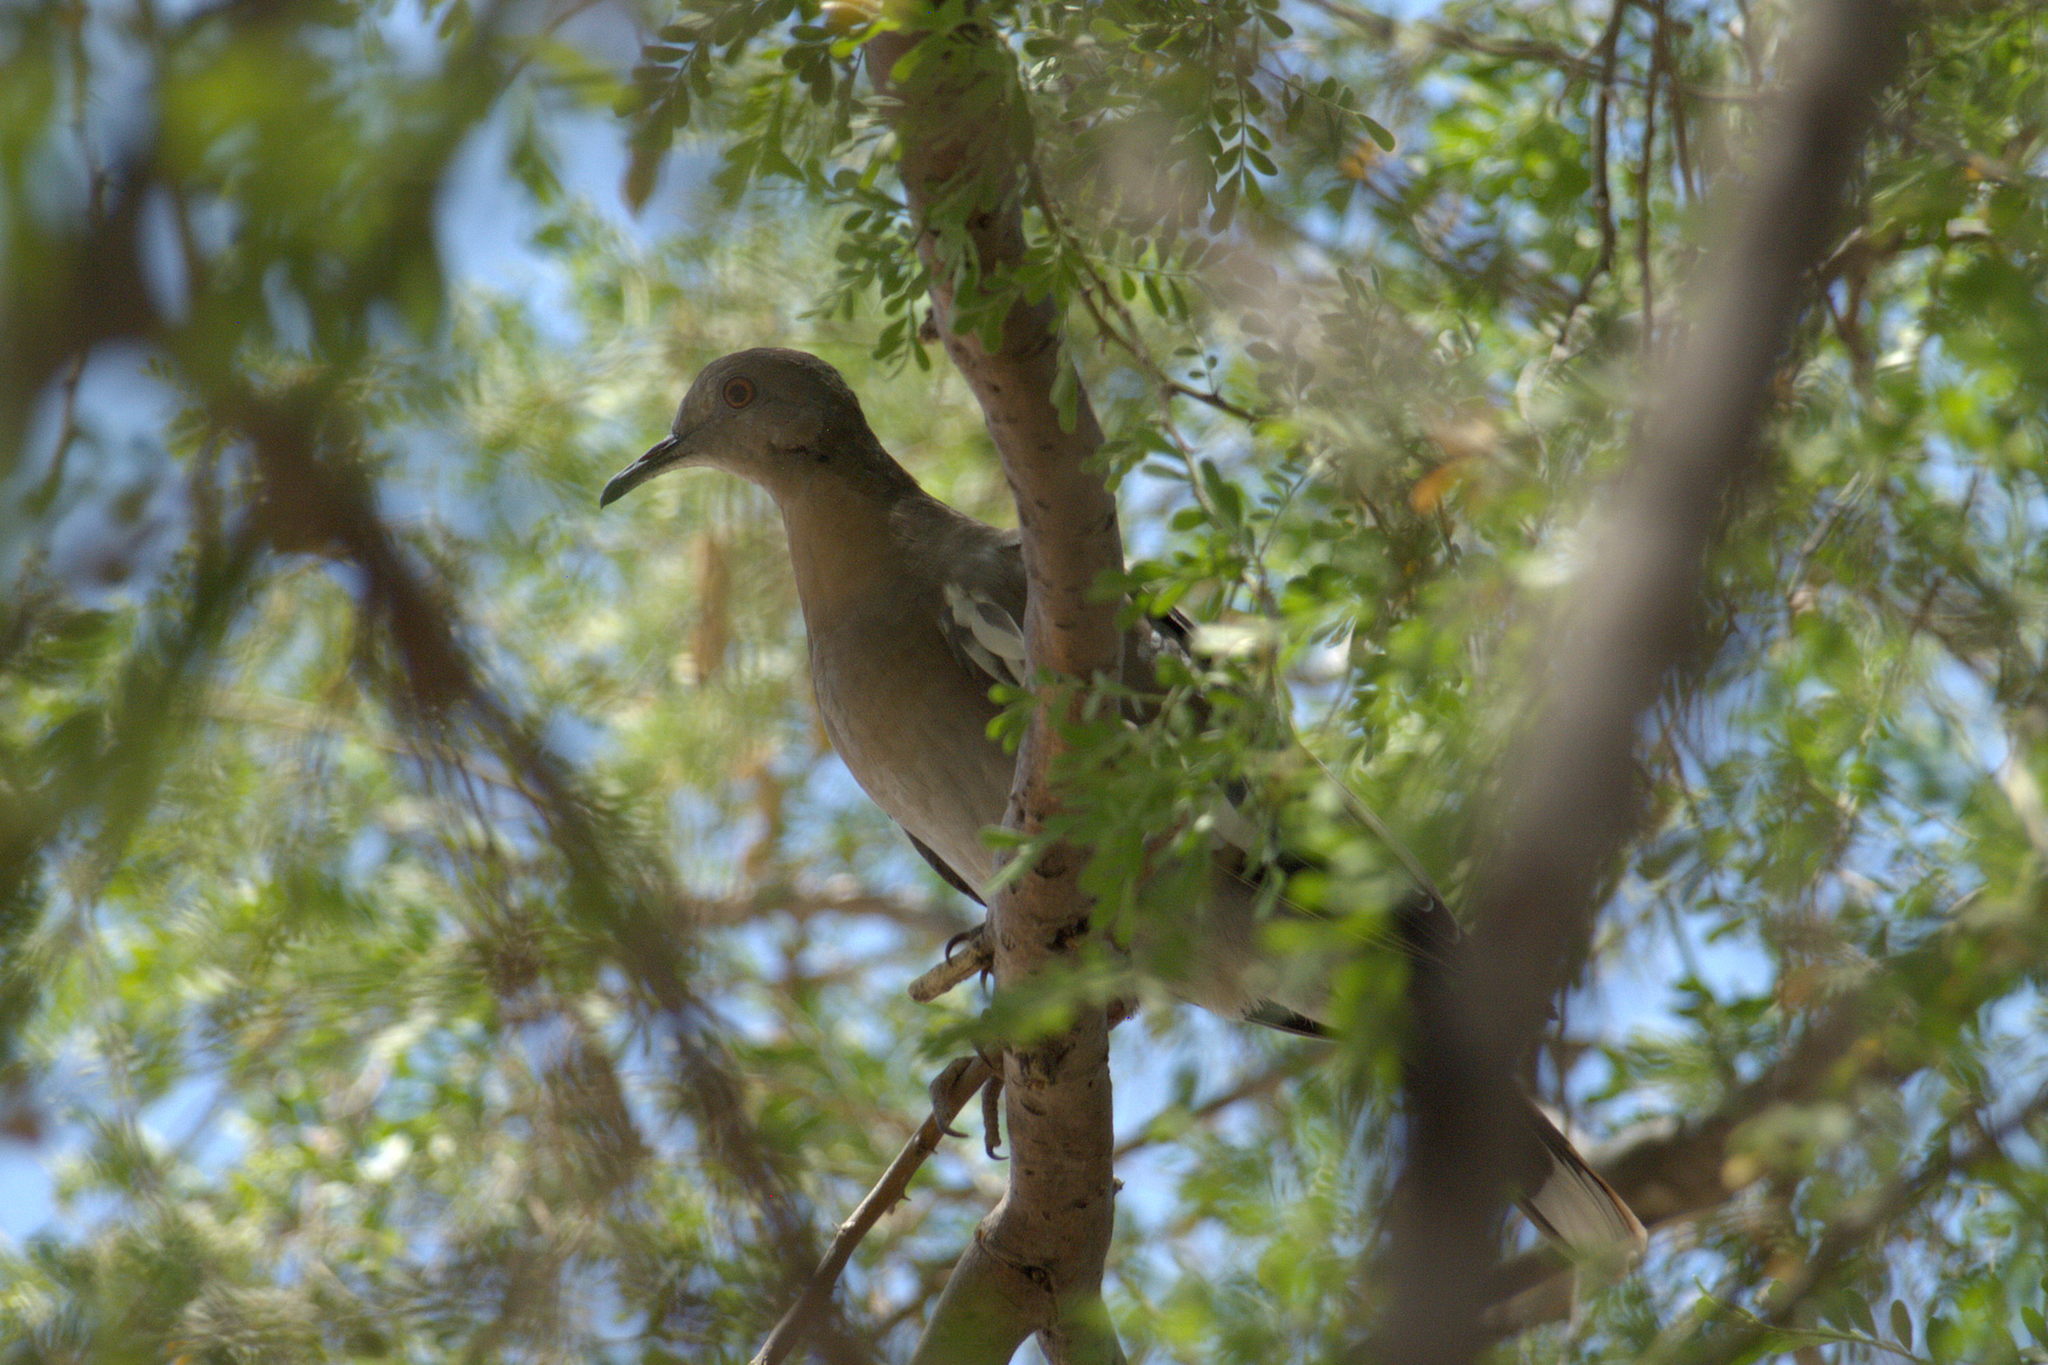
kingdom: Animalia
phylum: Chordata
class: Aves
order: Columbiformes
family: Columbidae
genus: Zenaida
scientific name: Zenaida asiatica
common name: White-winged dove
